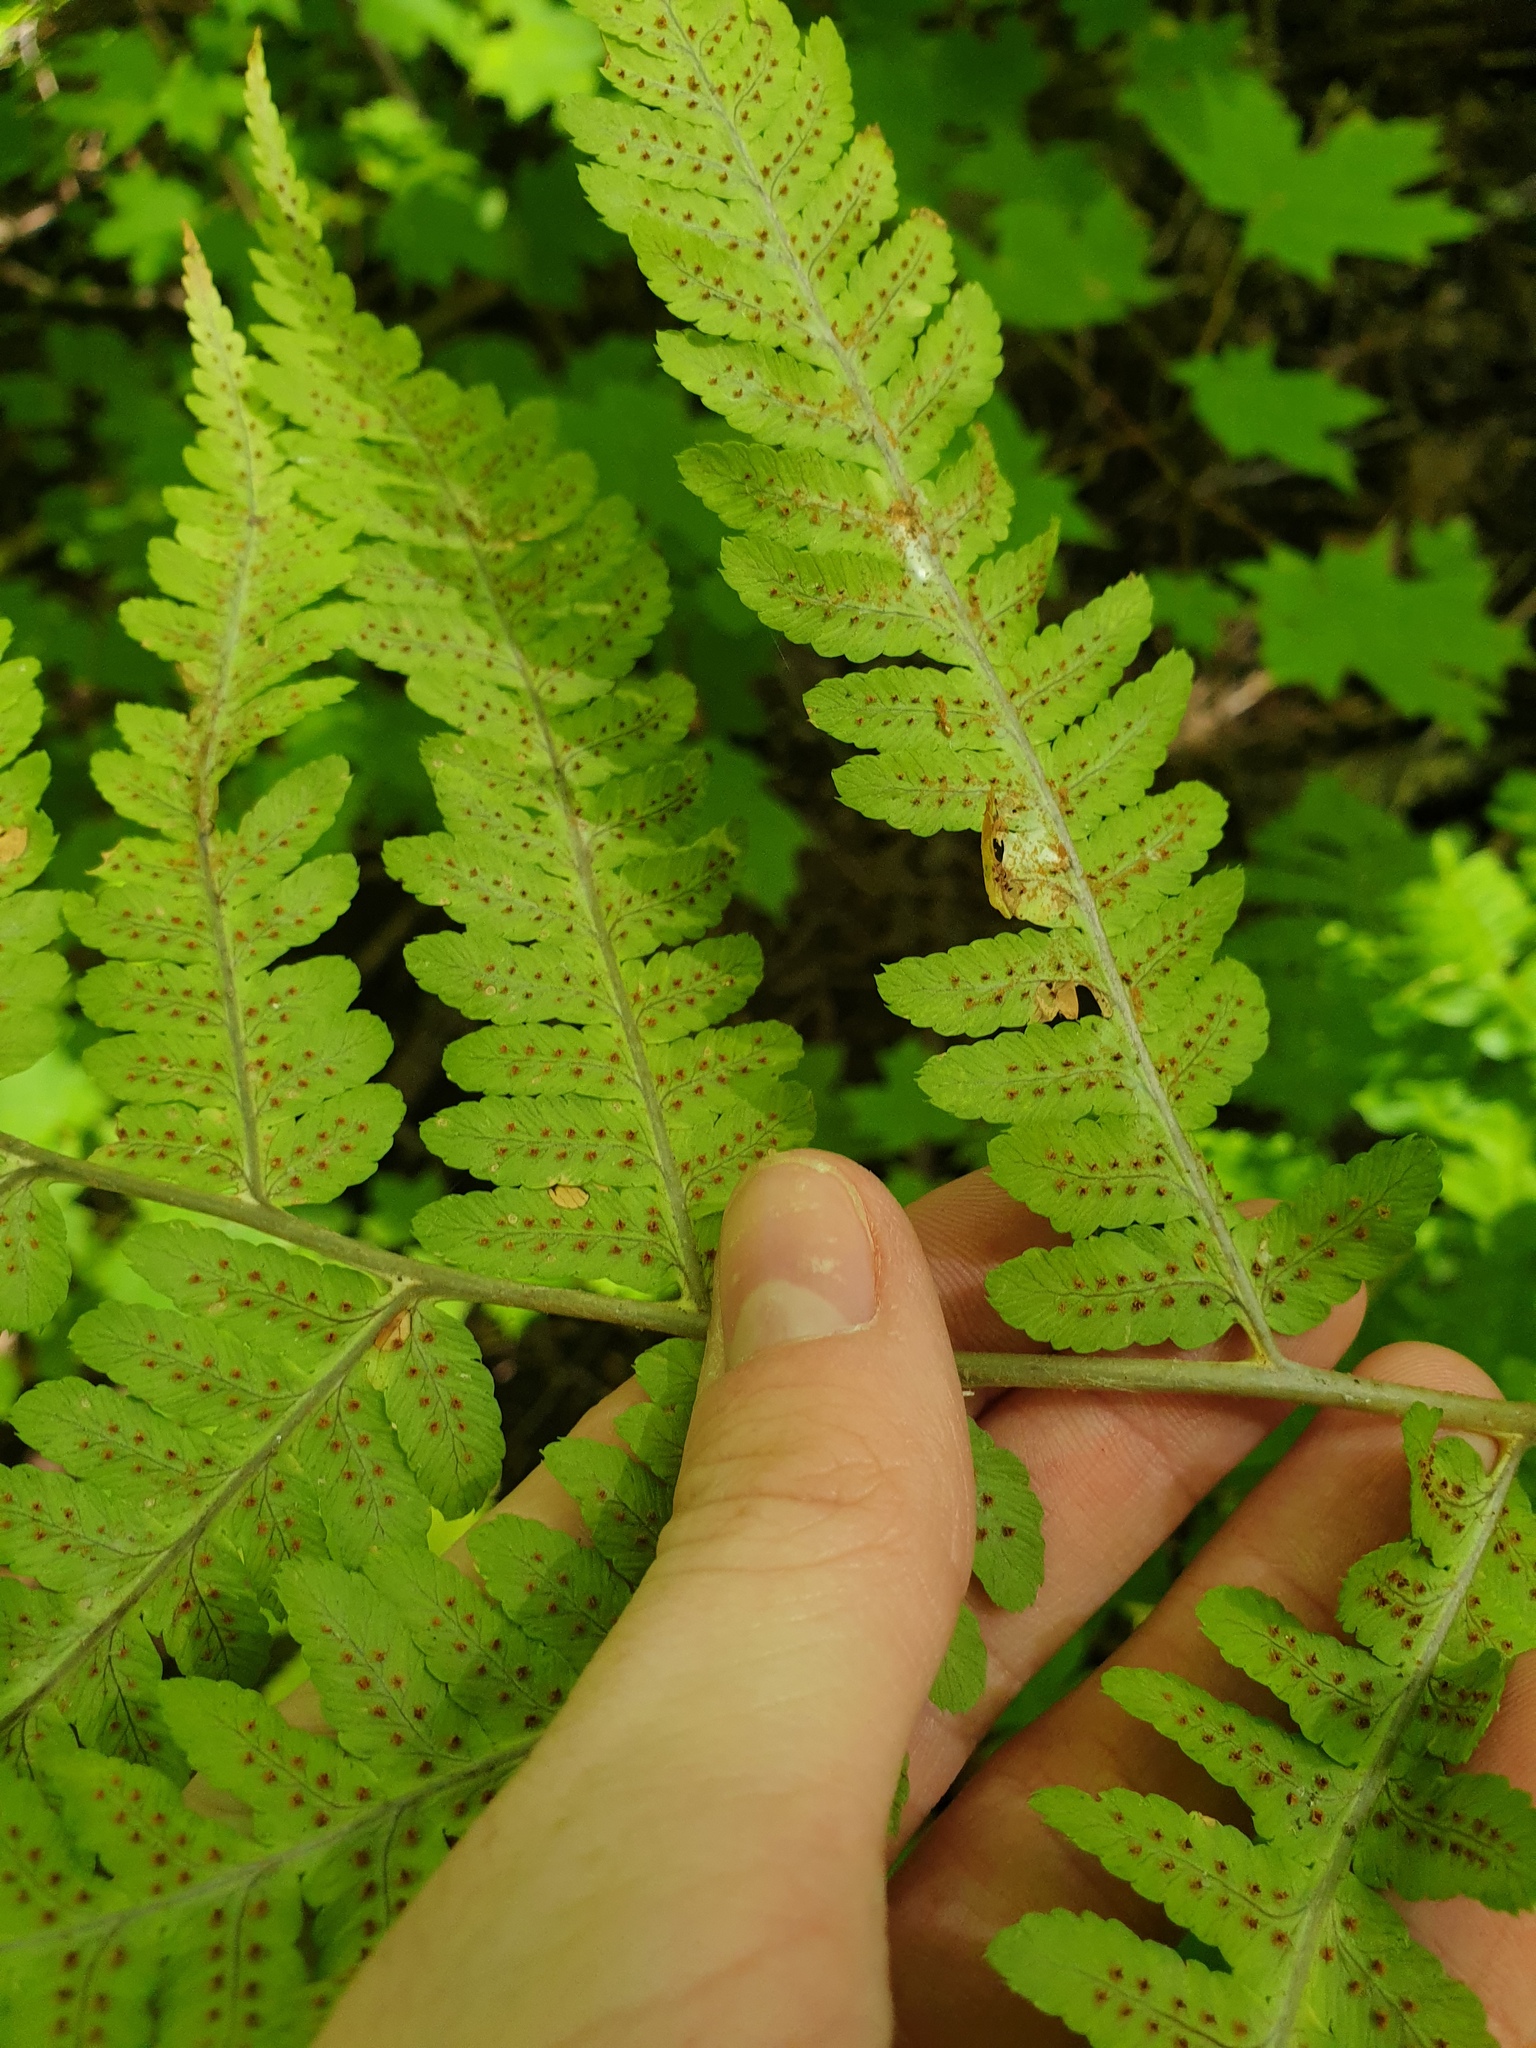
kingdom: Plantae
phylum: Tracheophyta
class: Polypodiopsida
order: Polypodiales
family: Dryopteridaceae
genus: Dryopteris
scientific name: Dryopteris goldieana
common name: Goldie's fern
